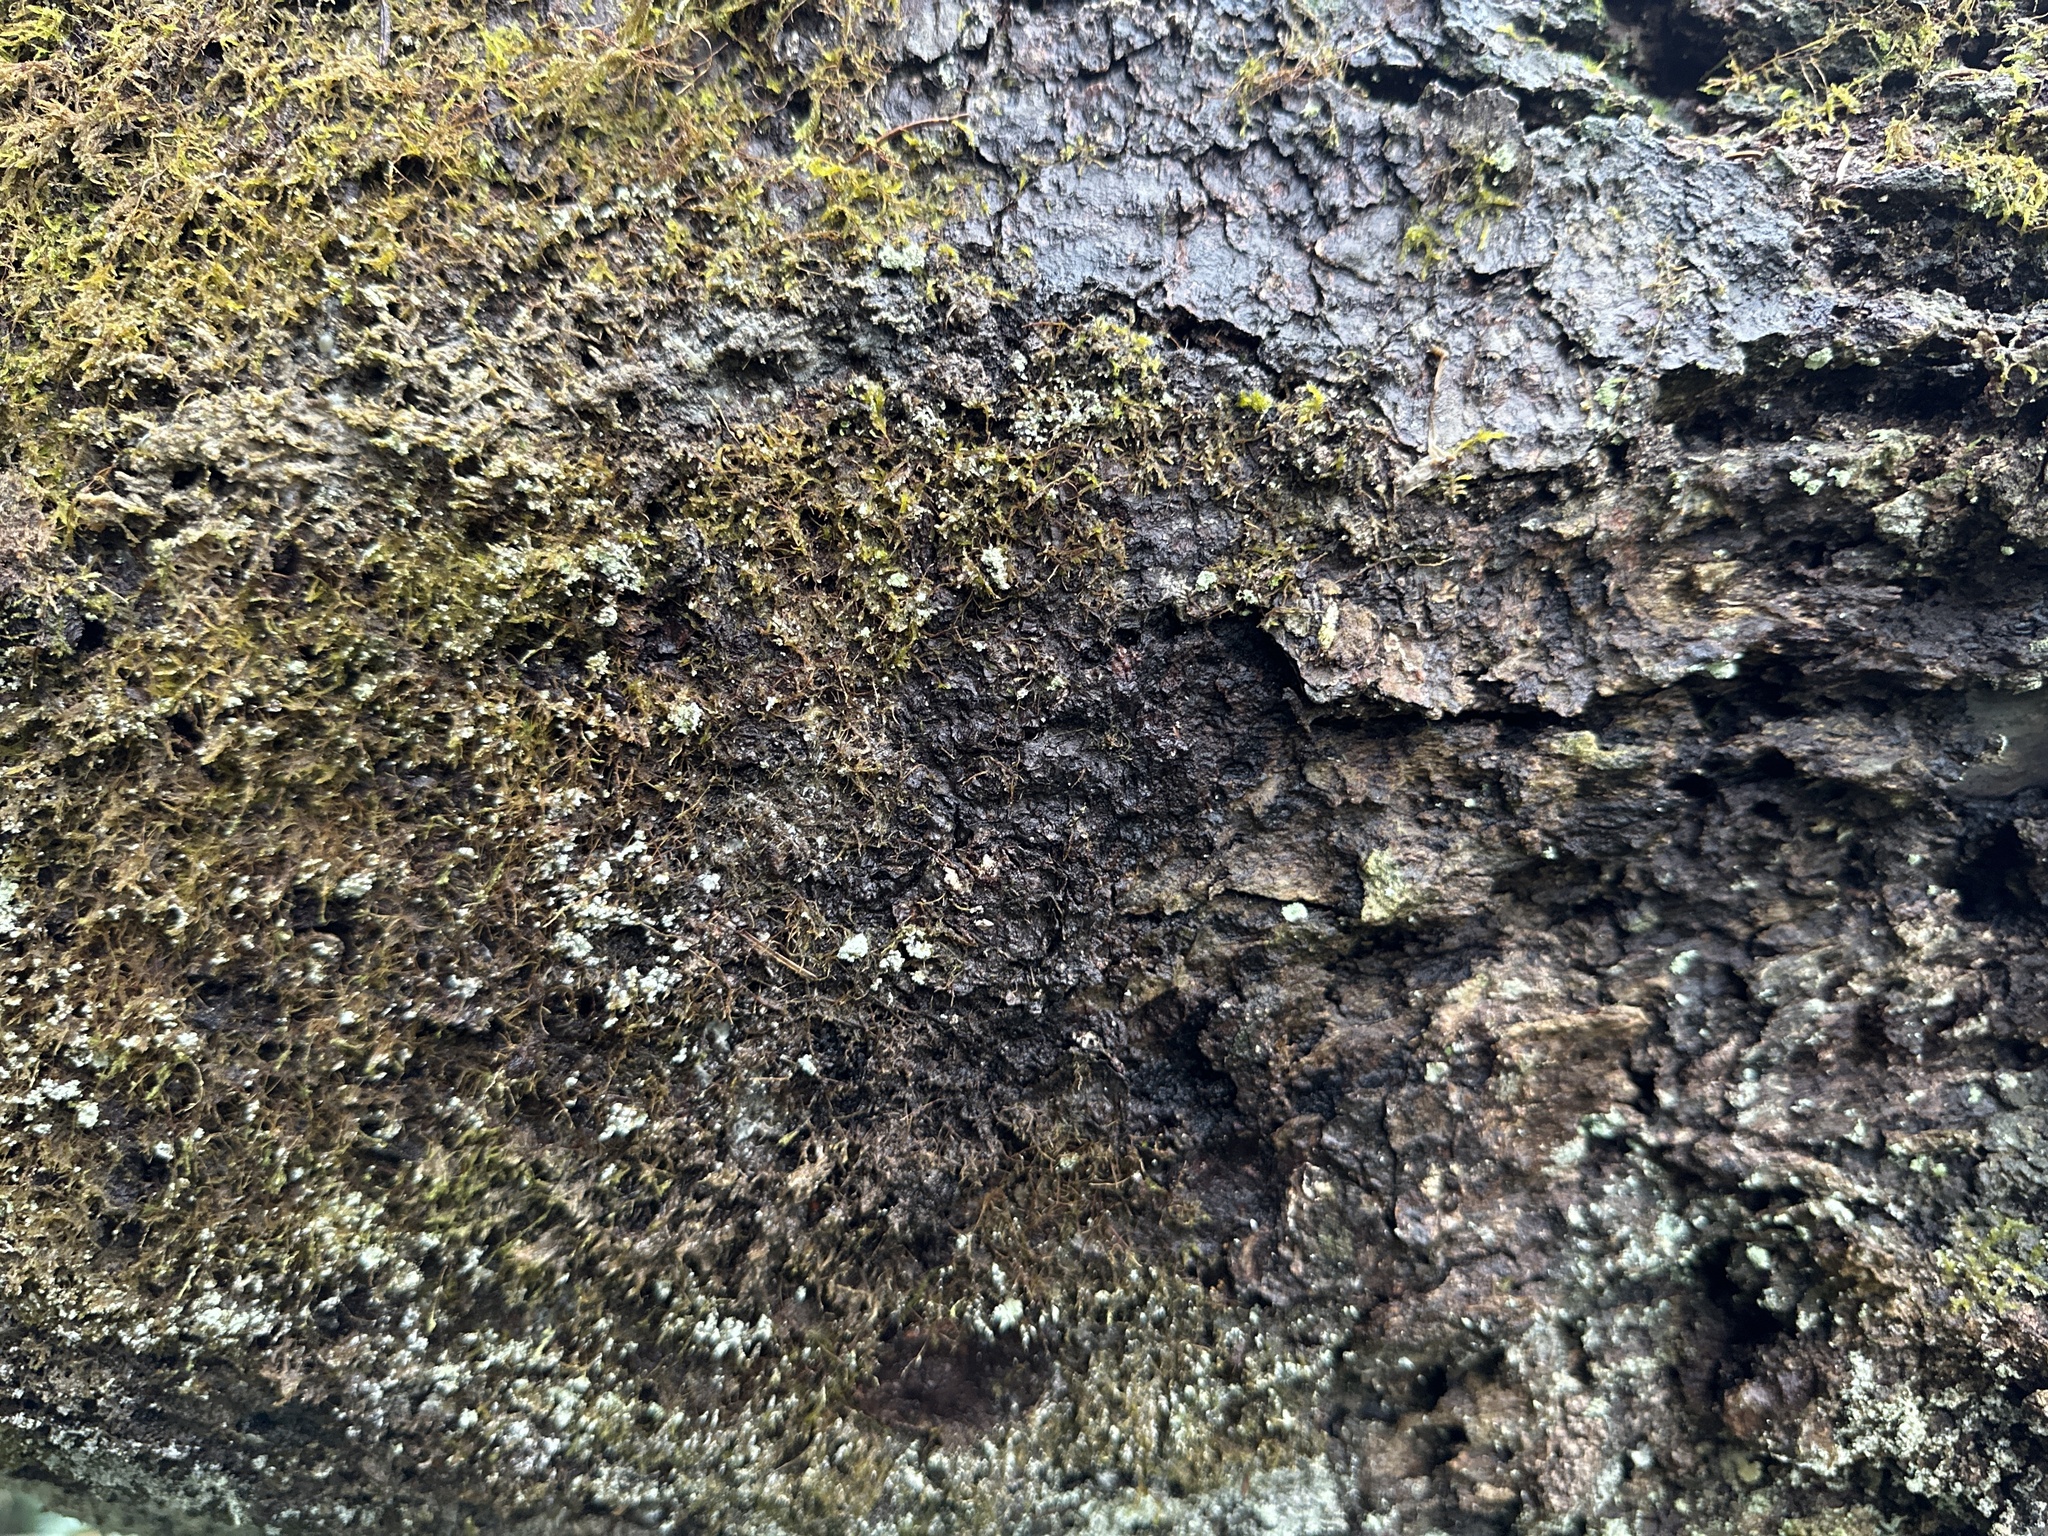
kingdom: Plantae
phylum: Tracheophyta
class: Pinopsida
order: Pinales
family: Pinaceae
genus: Abies
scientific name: Abies alba
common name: Silver fir
